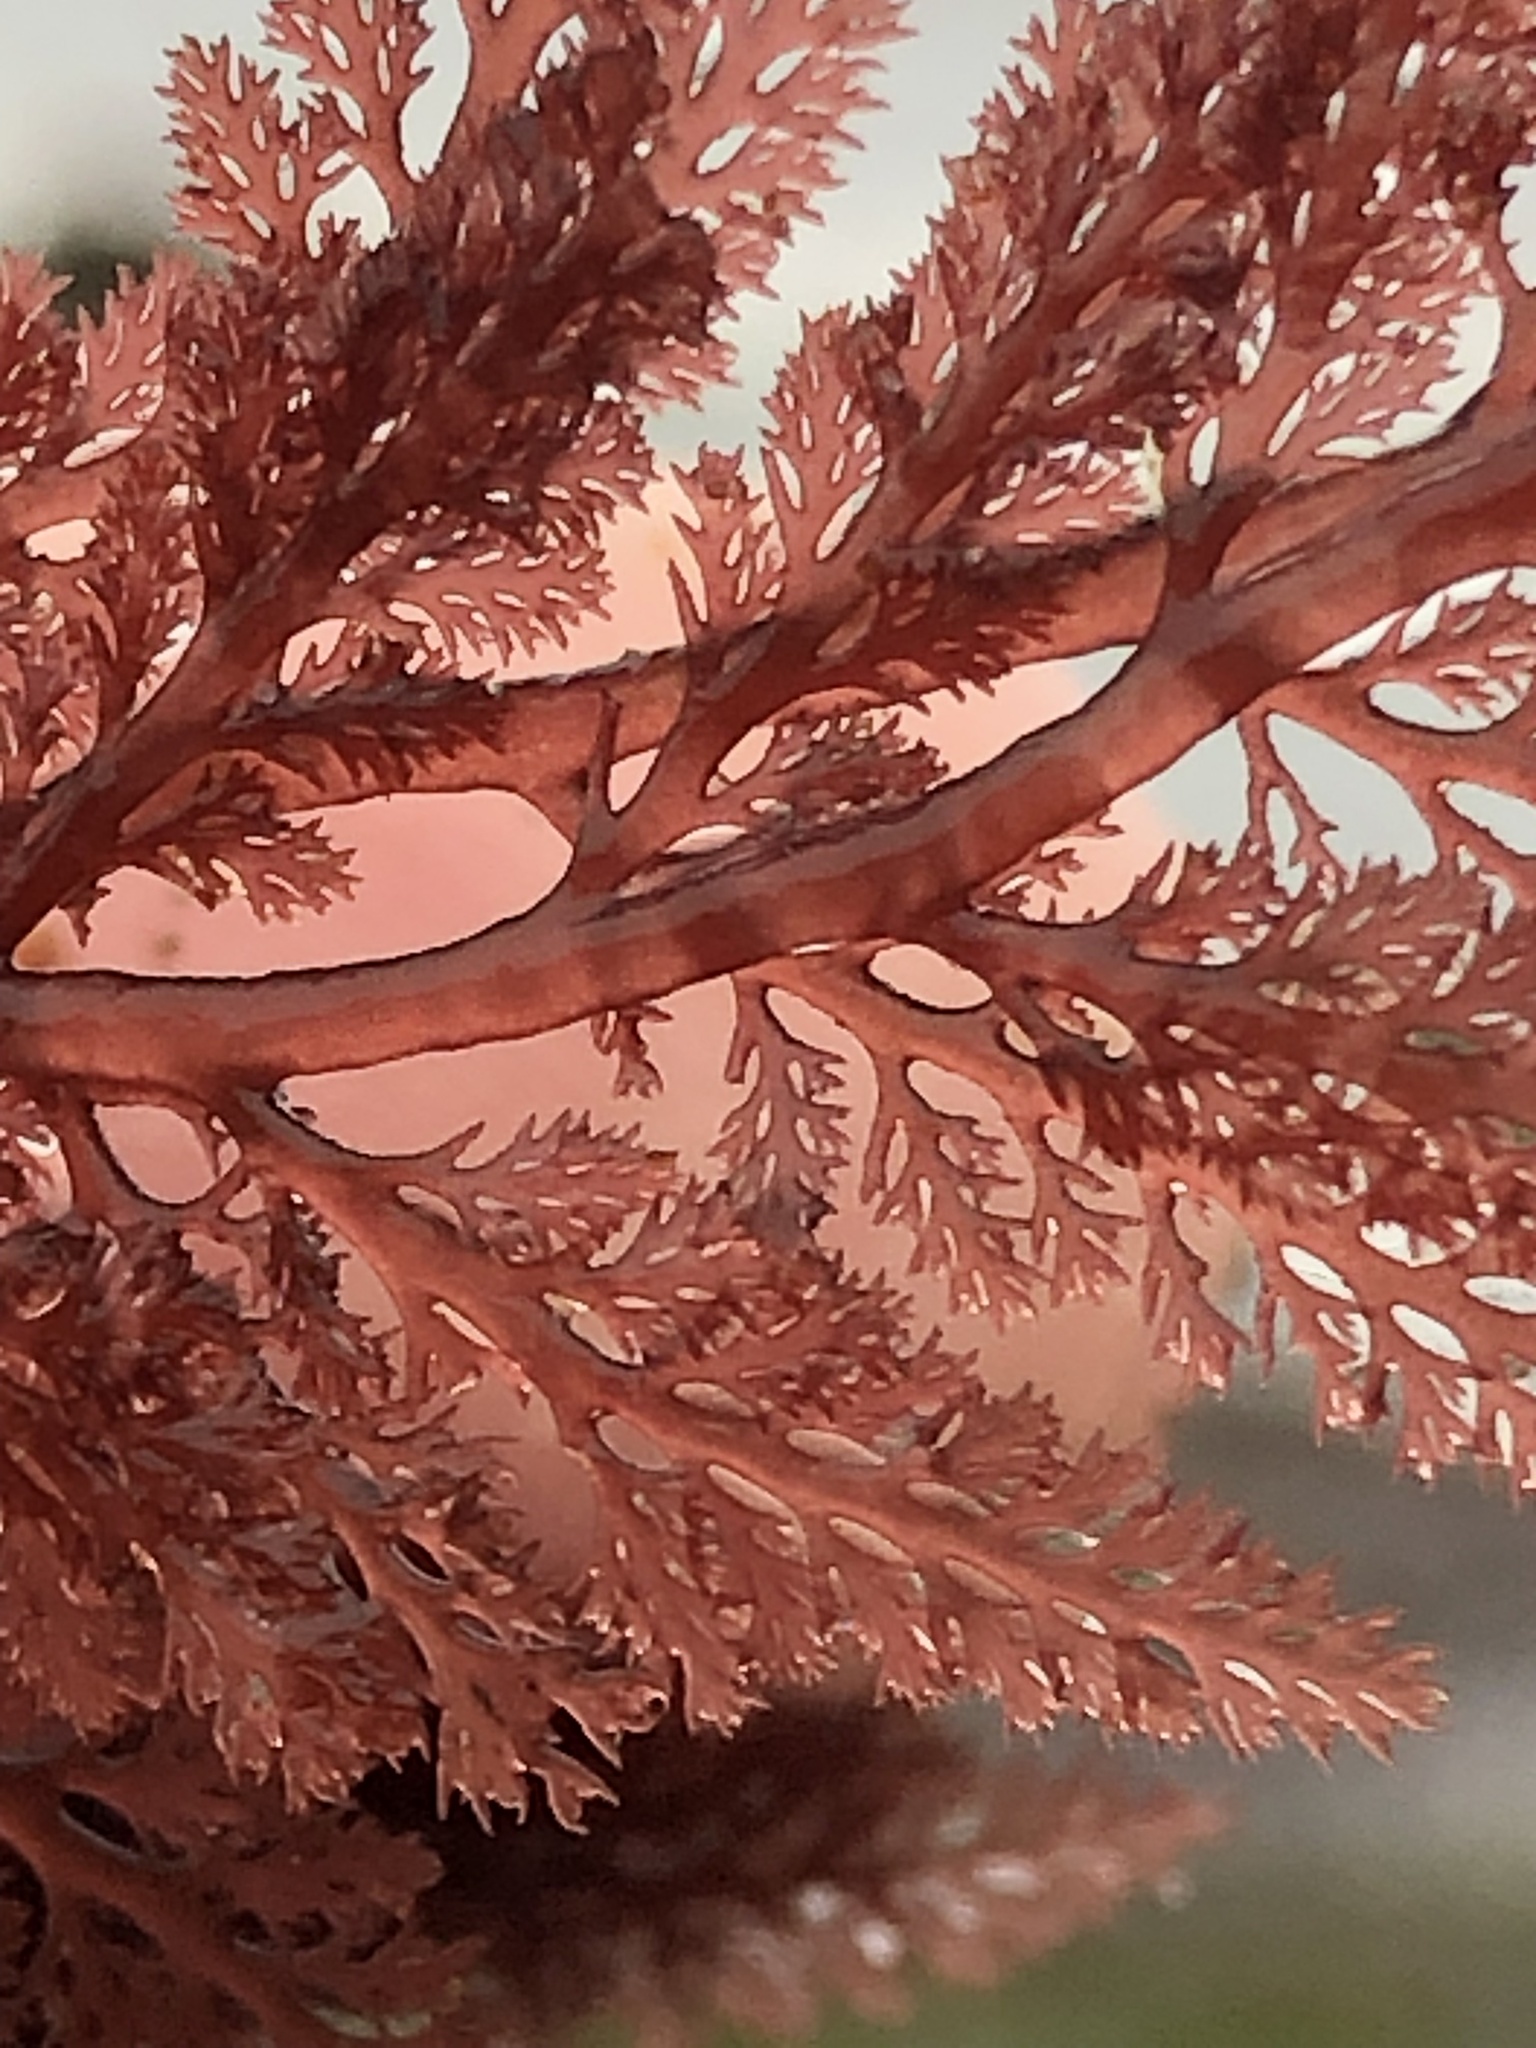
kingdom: Plantae
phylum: Rhodophyta
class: Florideophyceae
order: Ceramiales
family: Ceramiaceae
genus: Microcladia
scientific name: Microcladia coulteri
